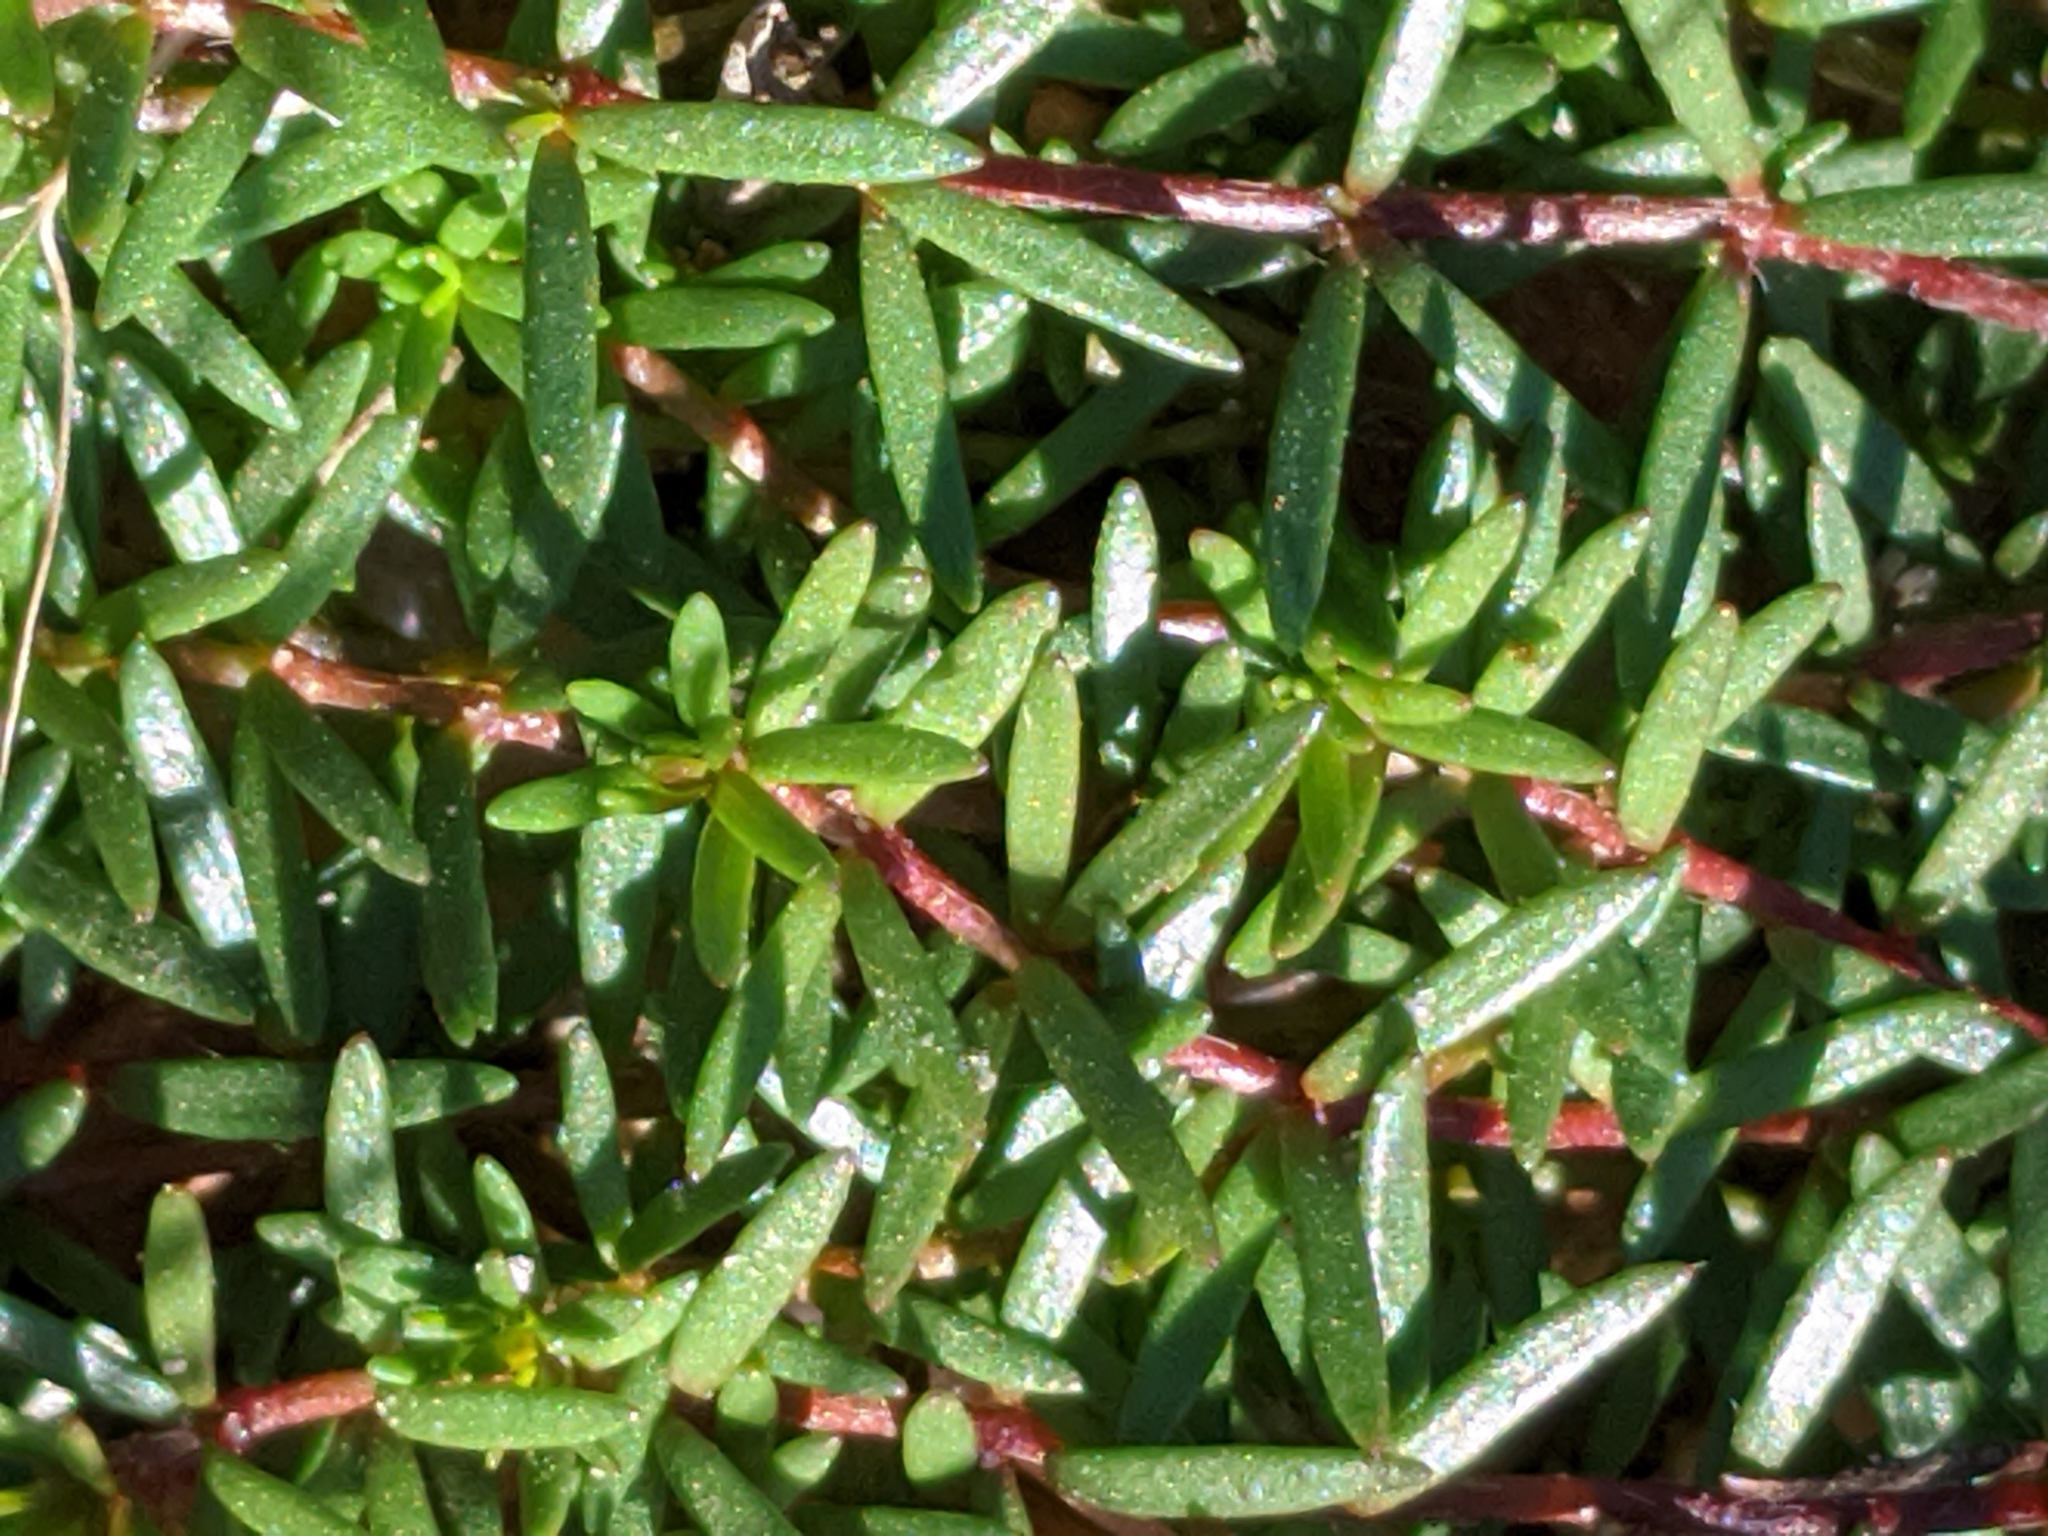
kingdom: Plantae
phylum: Tracheophyta
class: Magnoliopsida
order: Malvales
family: Cistaceae
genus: Lechea
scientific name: Lechea tenuifolia
